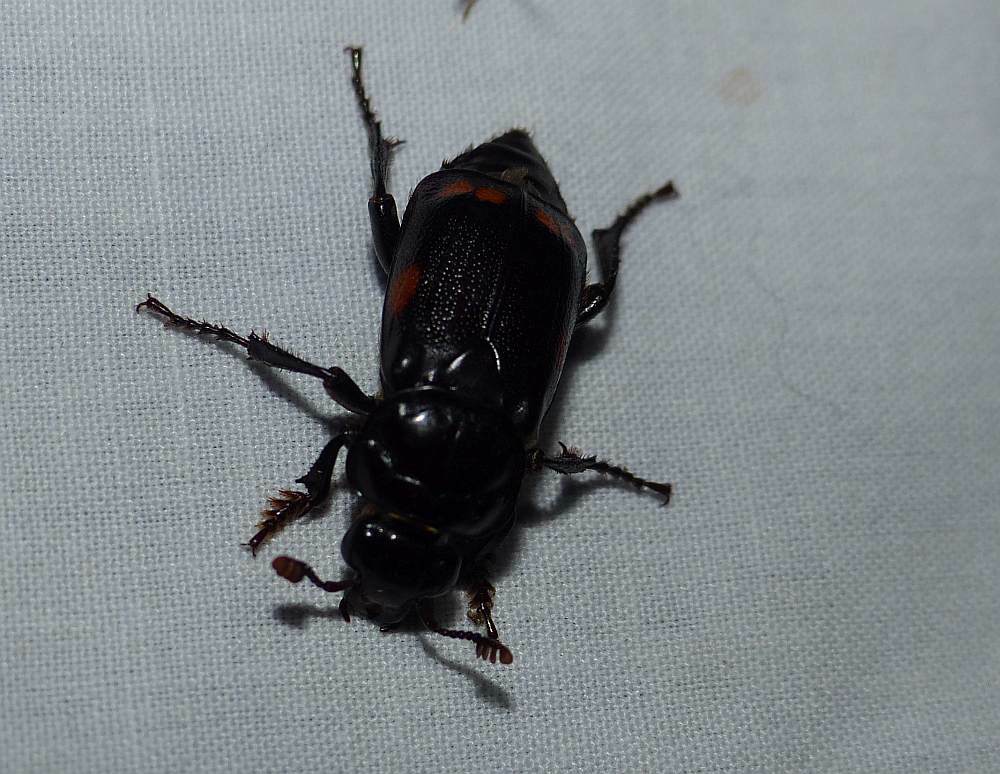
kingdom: Animalia
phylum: Arthropoda
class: Insecta
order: Coleoptera
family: Staphylinidae
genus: Nicrophorus
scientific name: Nicrophorus pustulatus
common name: Pustulated carrion beetle
